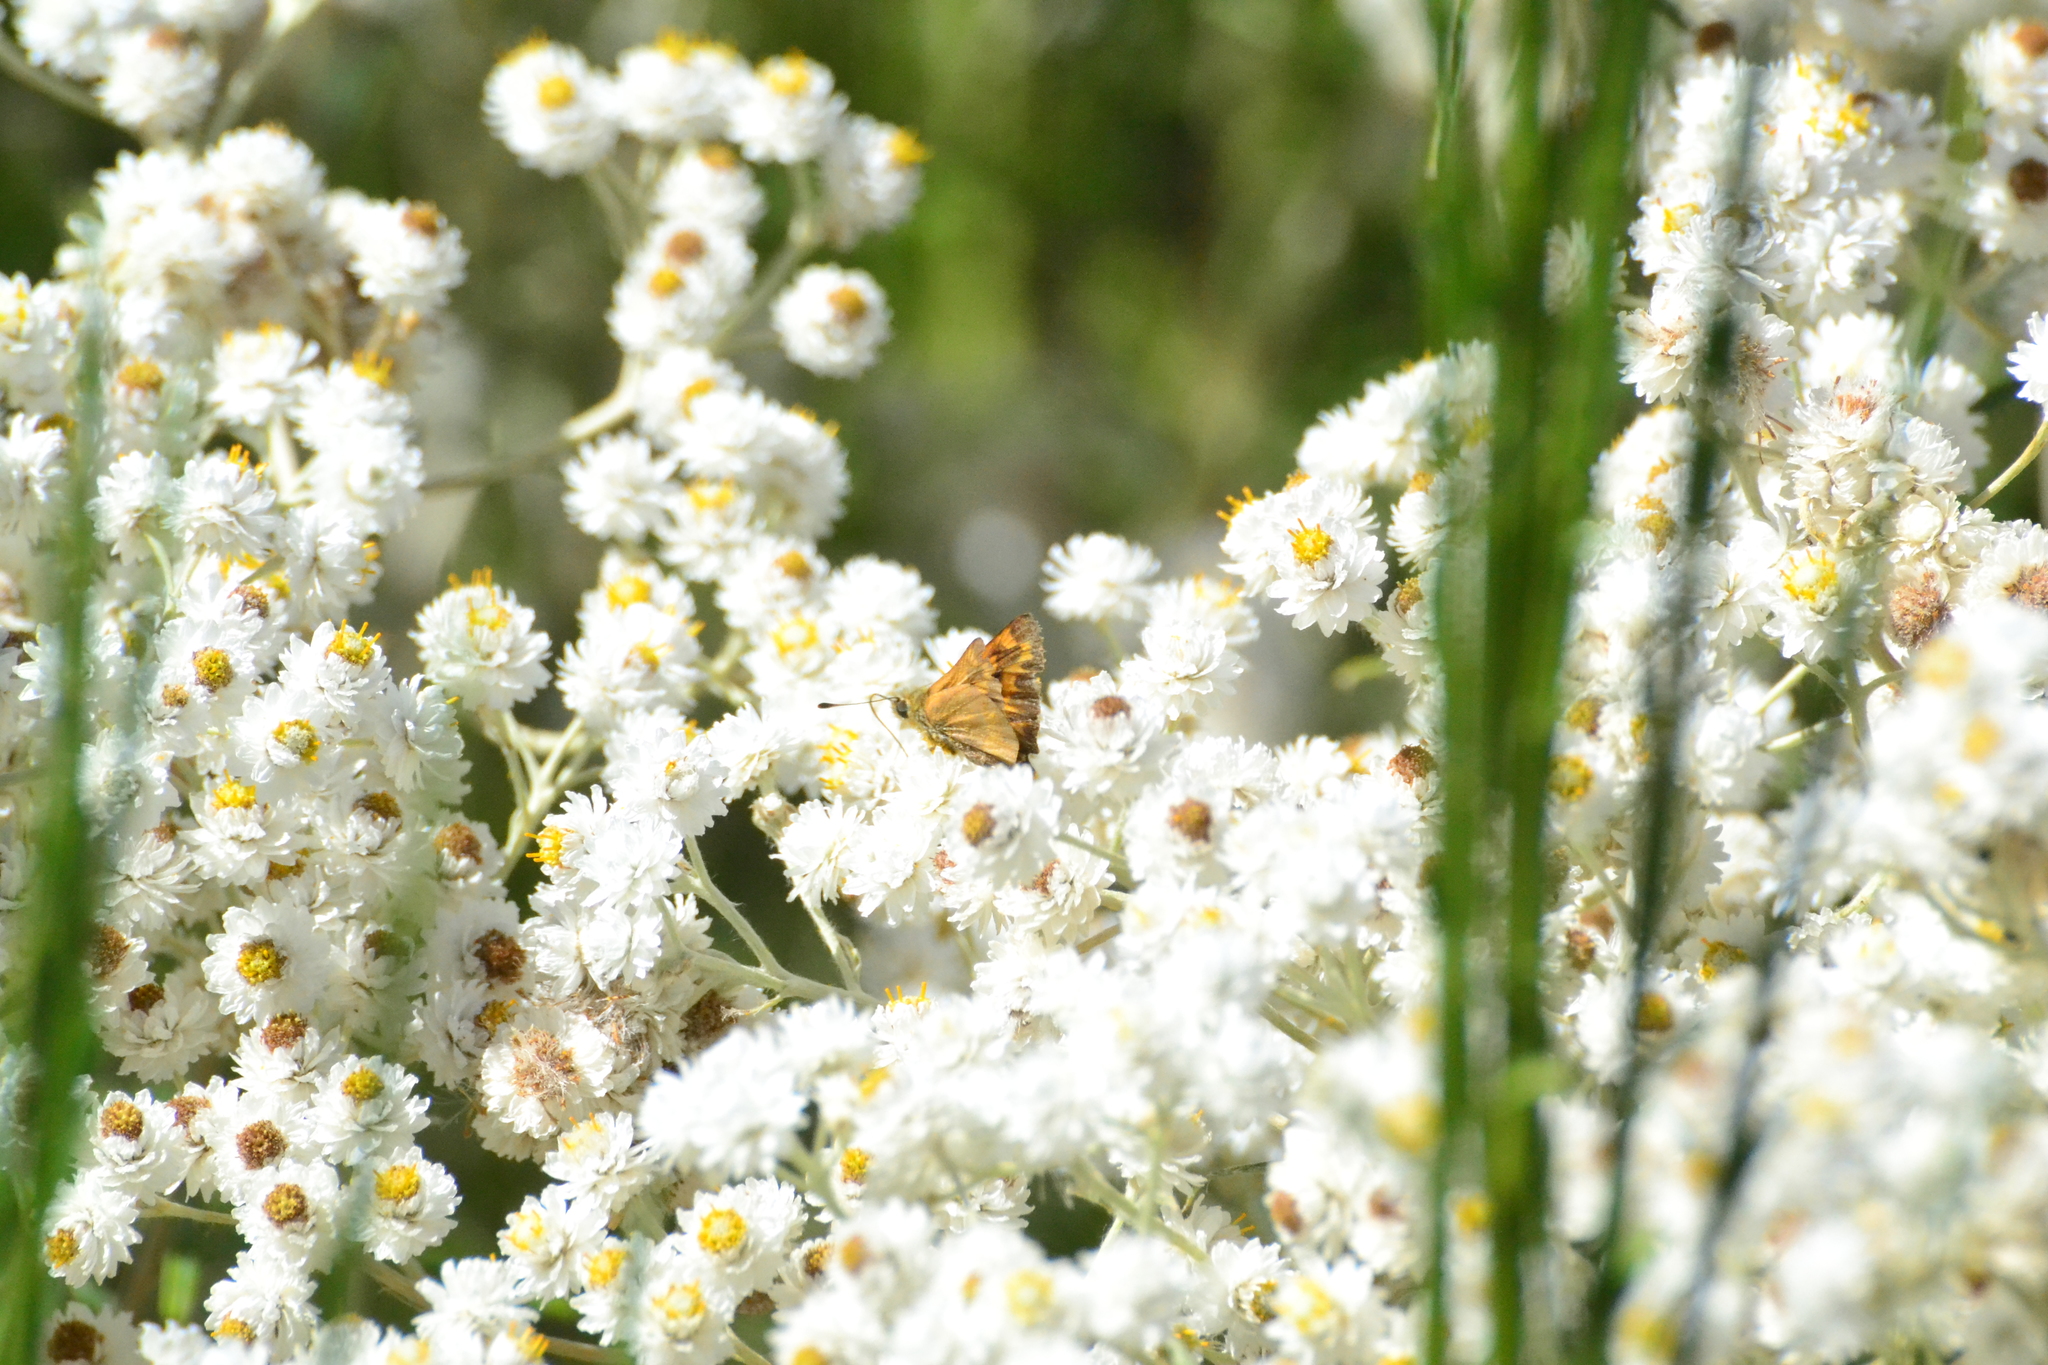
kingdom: Animalia
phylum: Arthropoda
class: Insecta
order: Lepidoptera
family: Hesperiidae
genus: Ochlodes
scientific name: Ochlodes sylvanoides
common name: Woodland skipper
